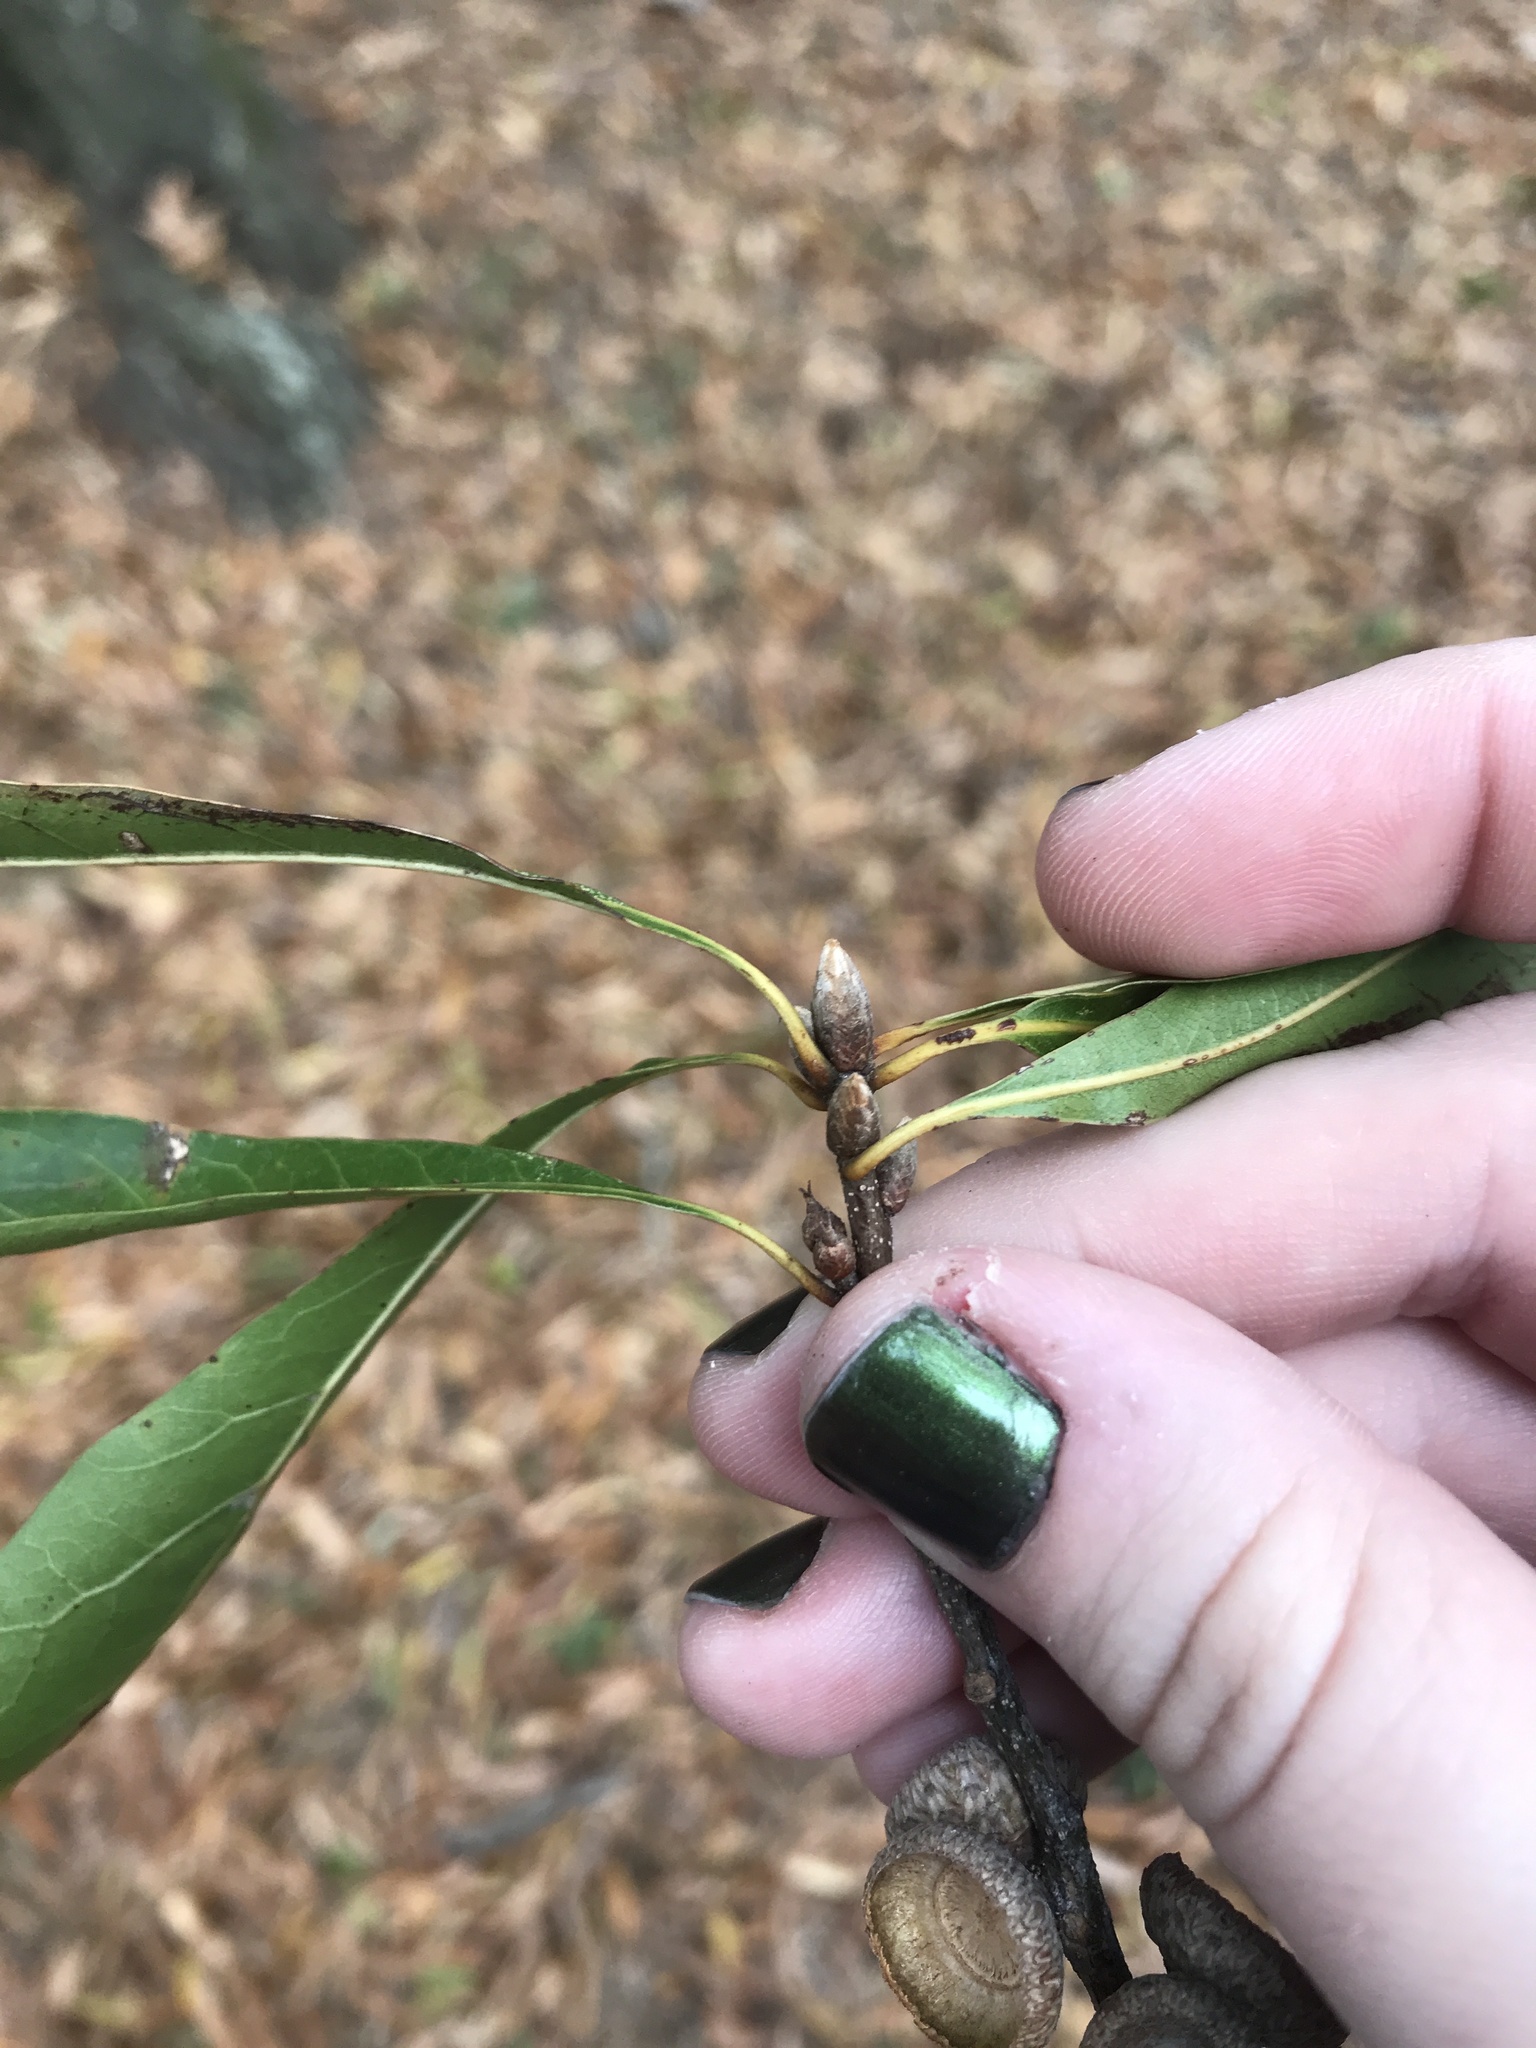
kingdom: Plantae
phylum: Tracheophyta
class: Magnoliopsida
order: Fagales
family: Fagaceae
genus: Quercus
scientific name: Quercus nigra
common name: Water oak
